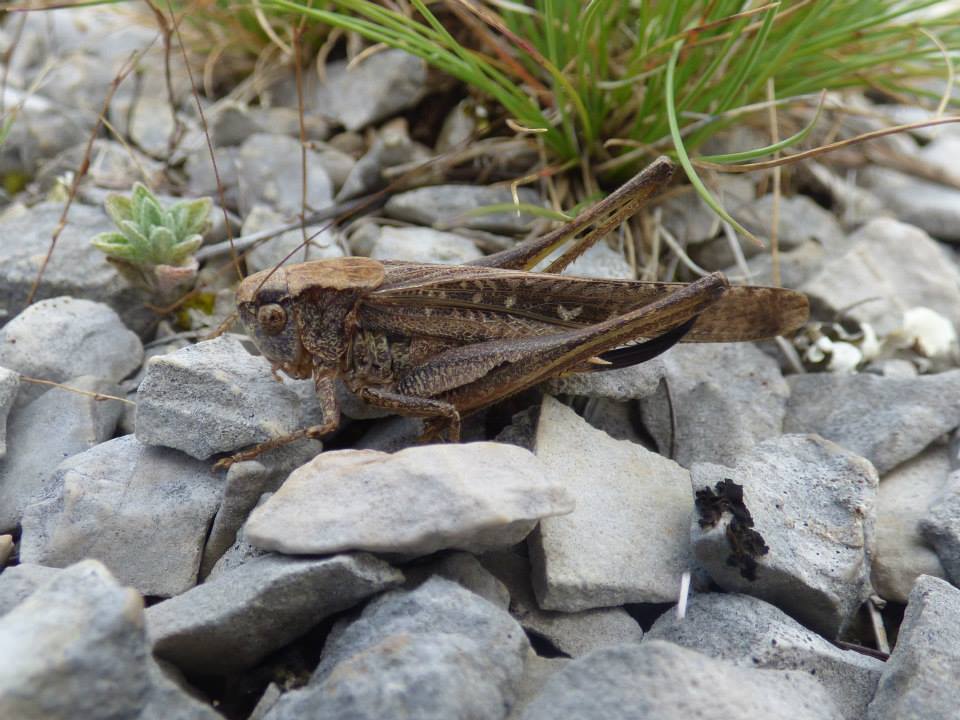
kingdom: Animalia
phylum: Arthropoda
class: Insecta
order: Orthoptera
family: Tettigoniidae
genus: Platycleis
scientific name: Platycleis grisea
